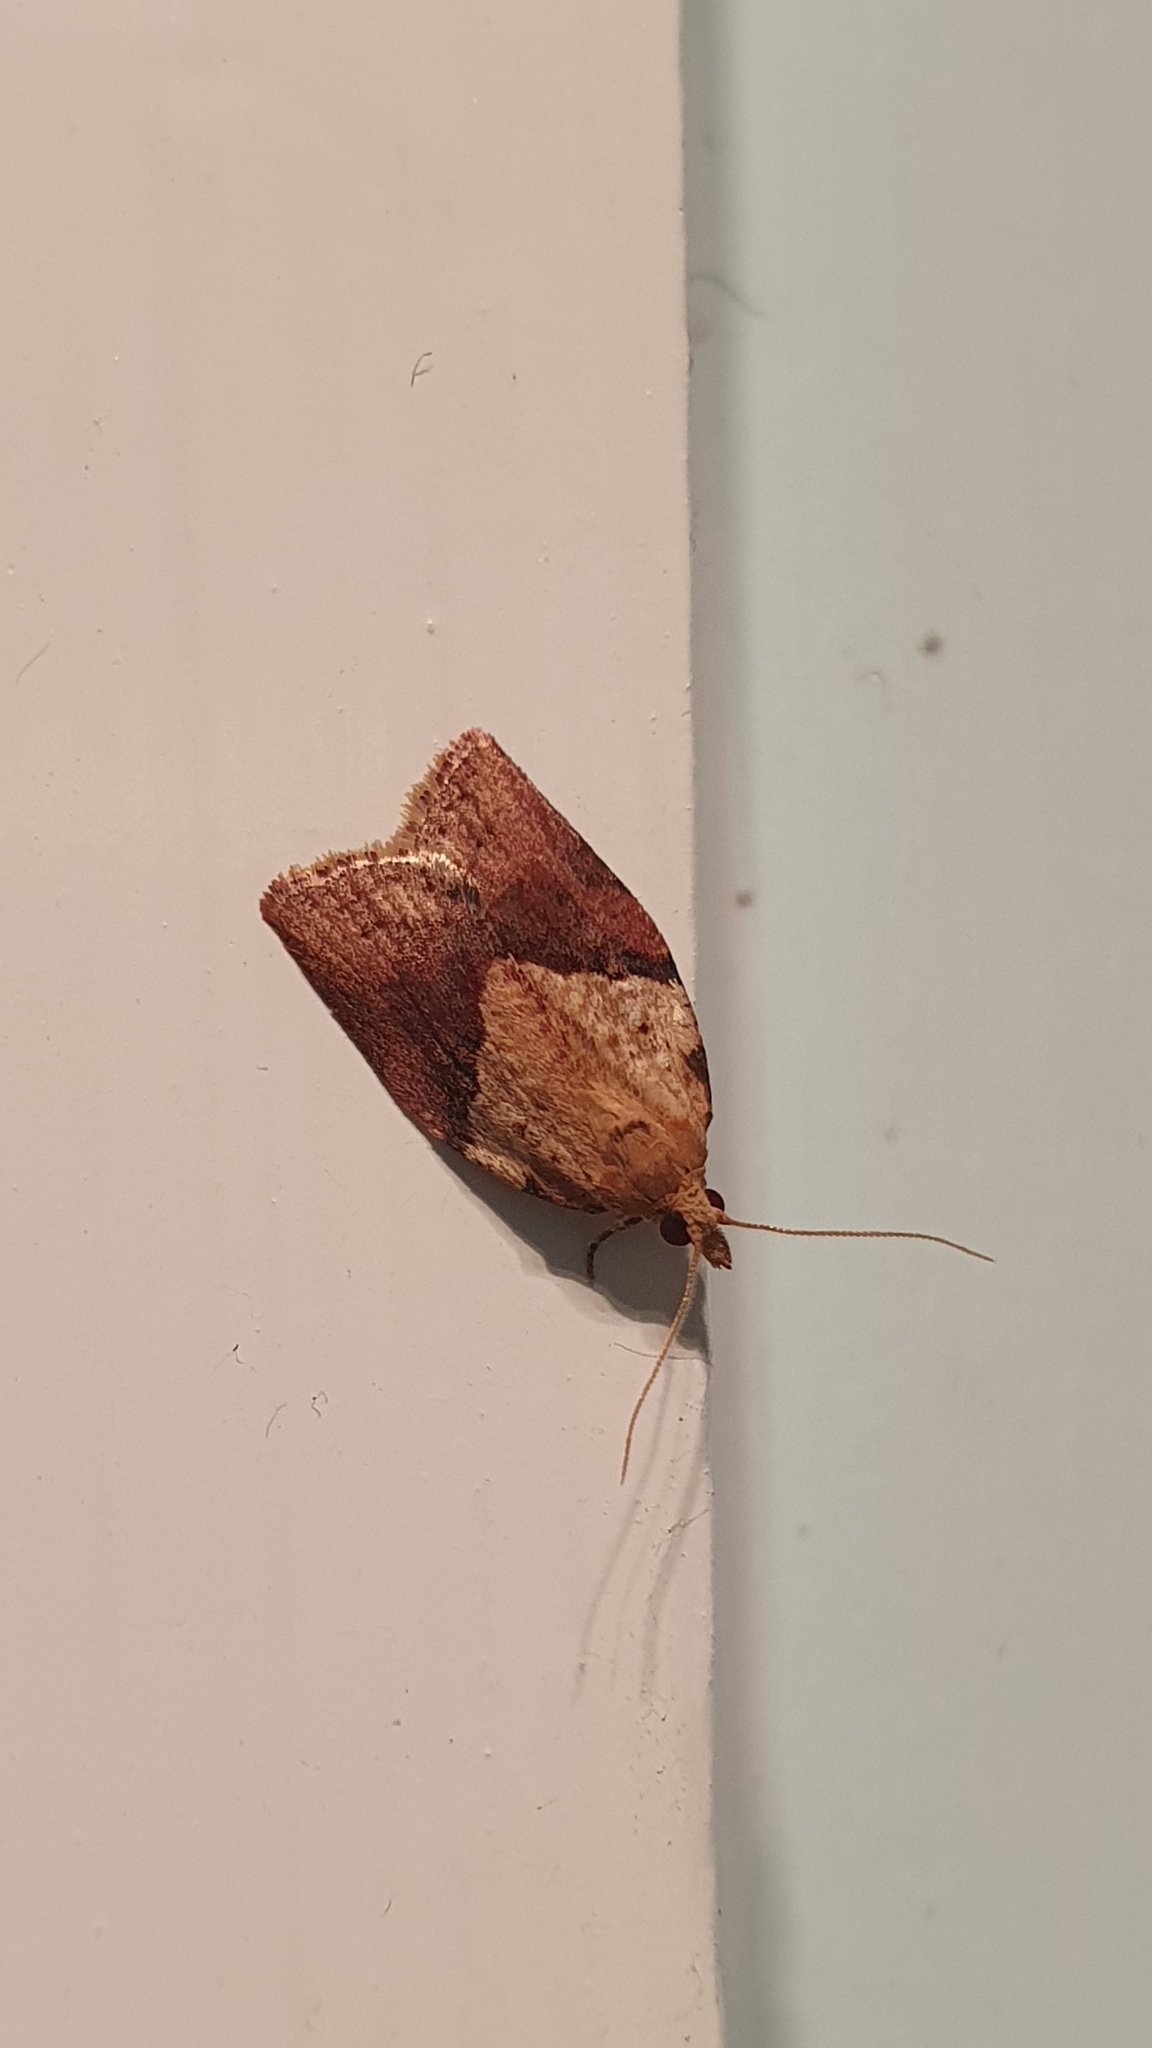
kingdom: Animalia
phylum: Arthropoda
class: Insecta
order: Lepidoptera
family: Tortricidae
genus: Epiphyas
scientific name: Epiphyas postvittana
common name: Light brown apple moth
